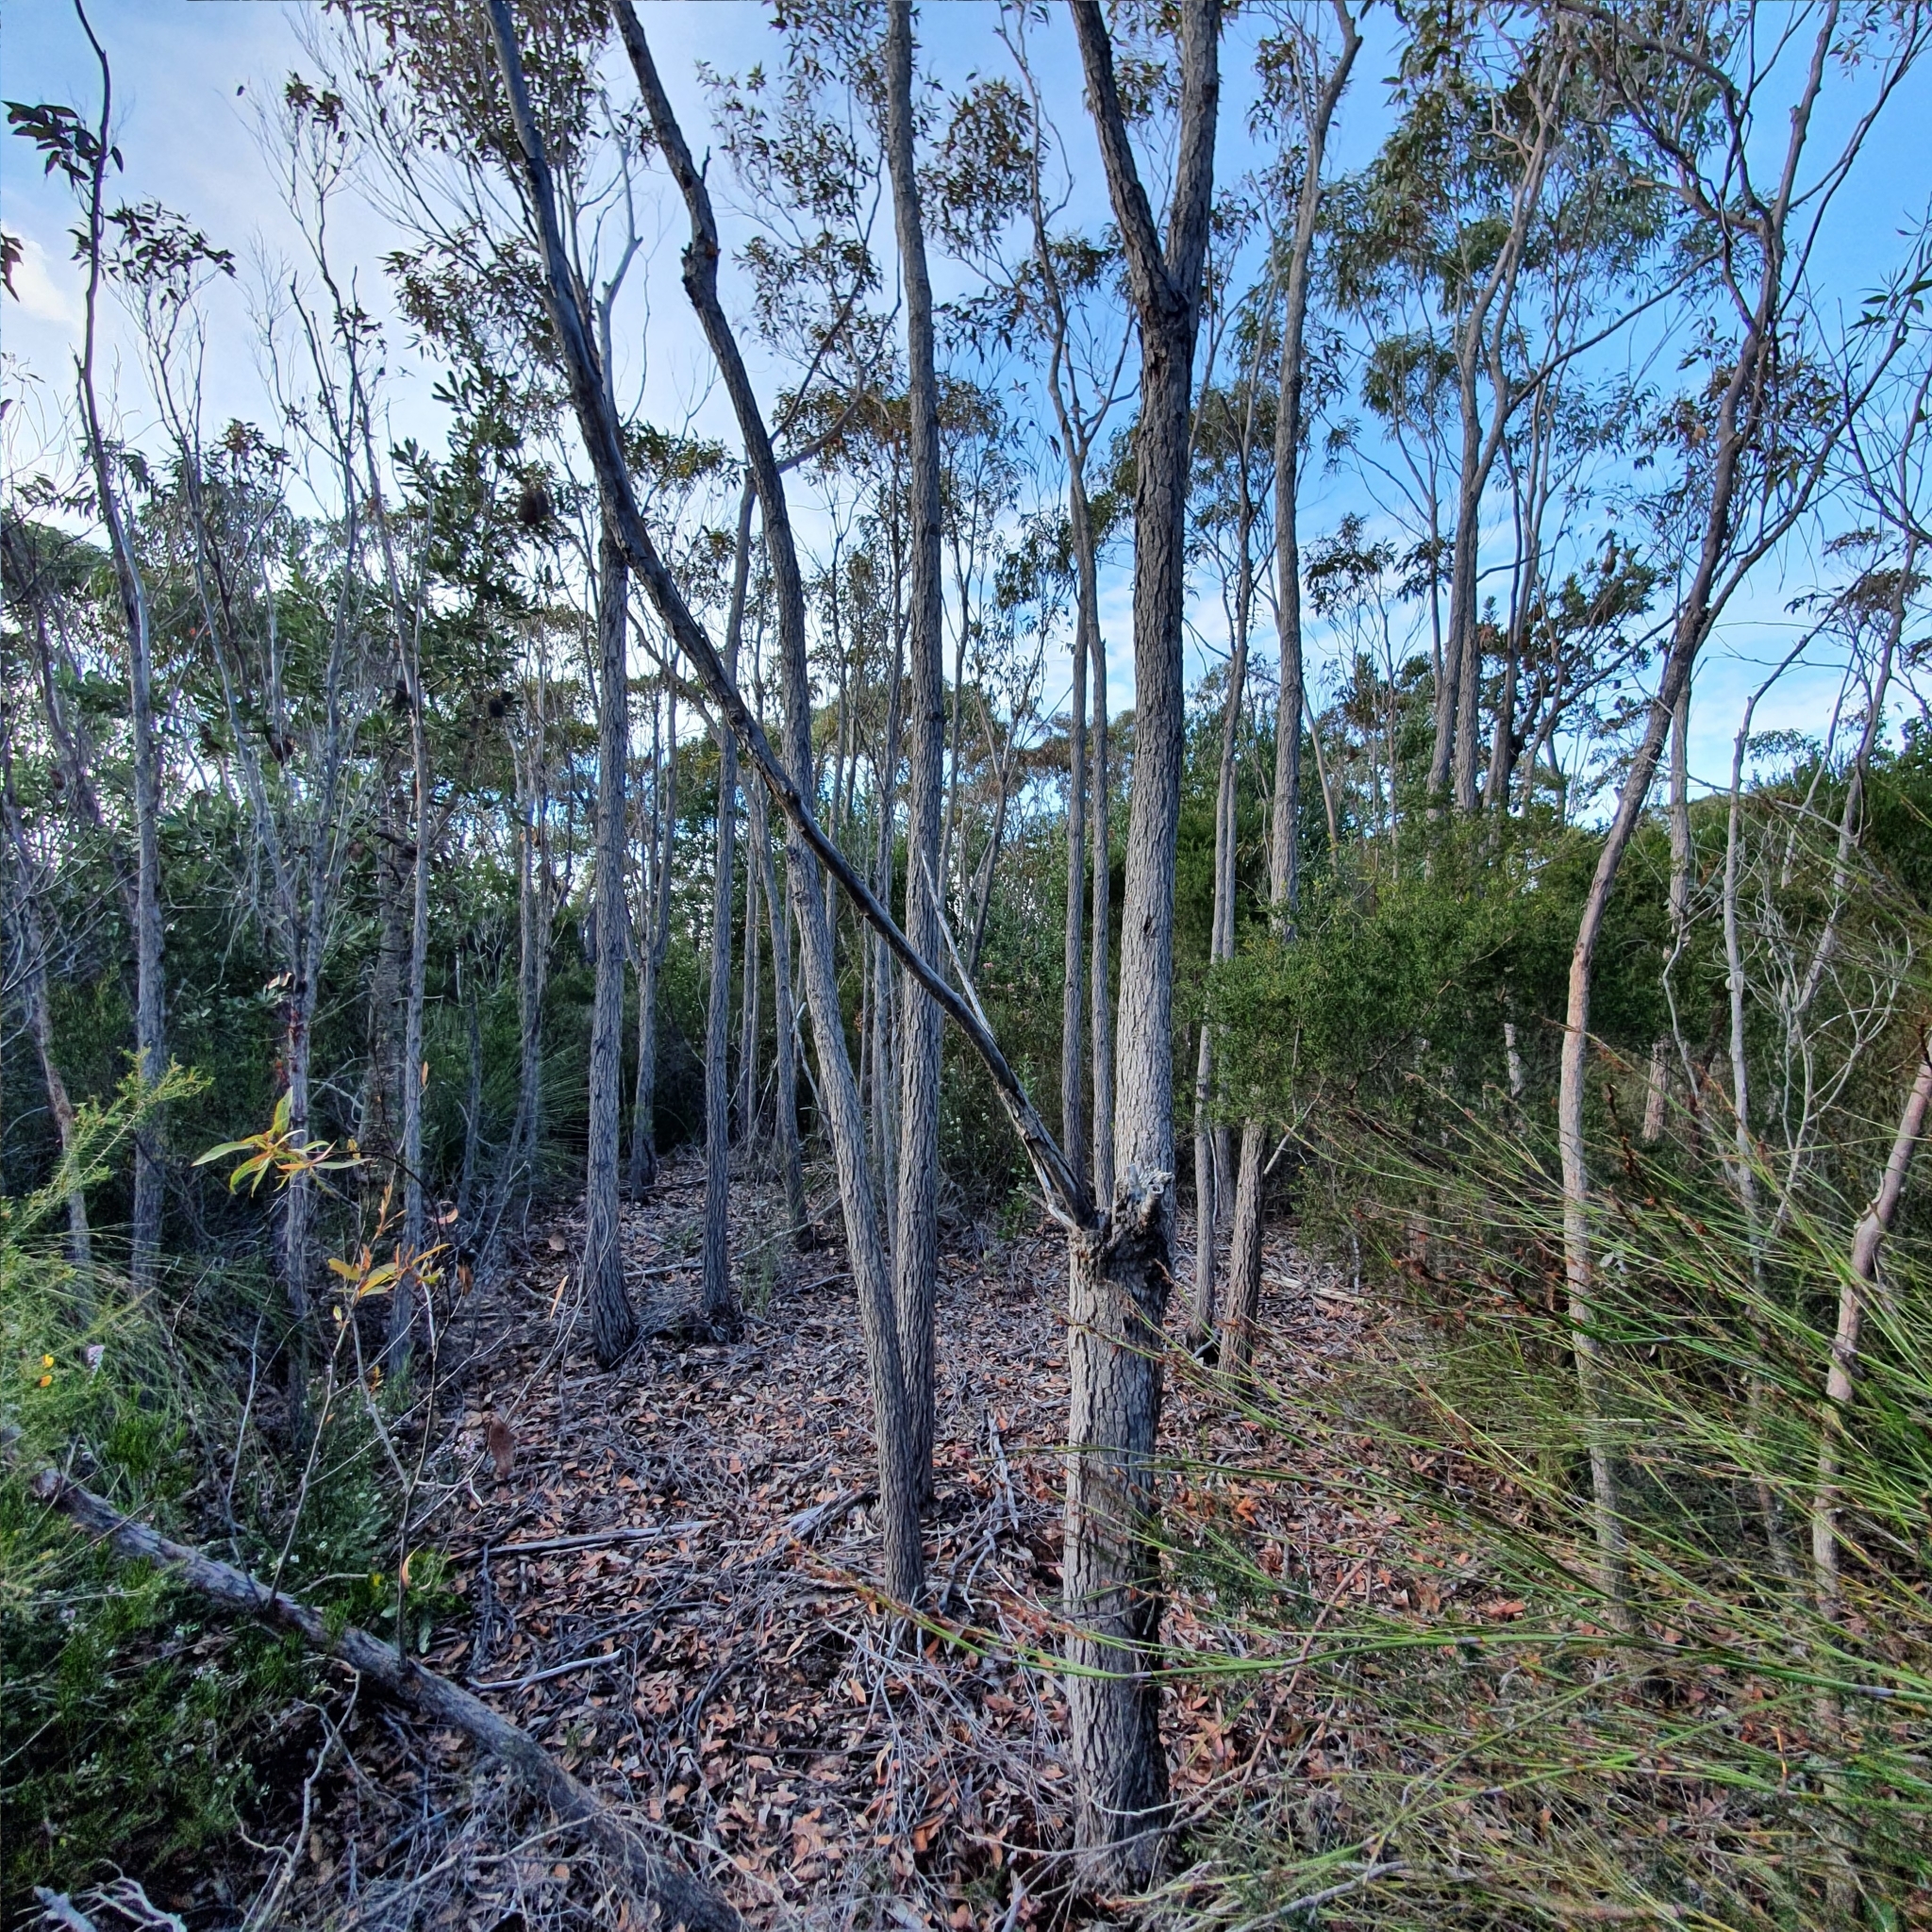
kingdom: Plantae
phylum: Tracheophyta
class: Magnoliopsida
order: Myrtales
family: Myrtaceae
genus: Corymbia
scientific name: Corymbia gummifera
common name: Red bloodwood
